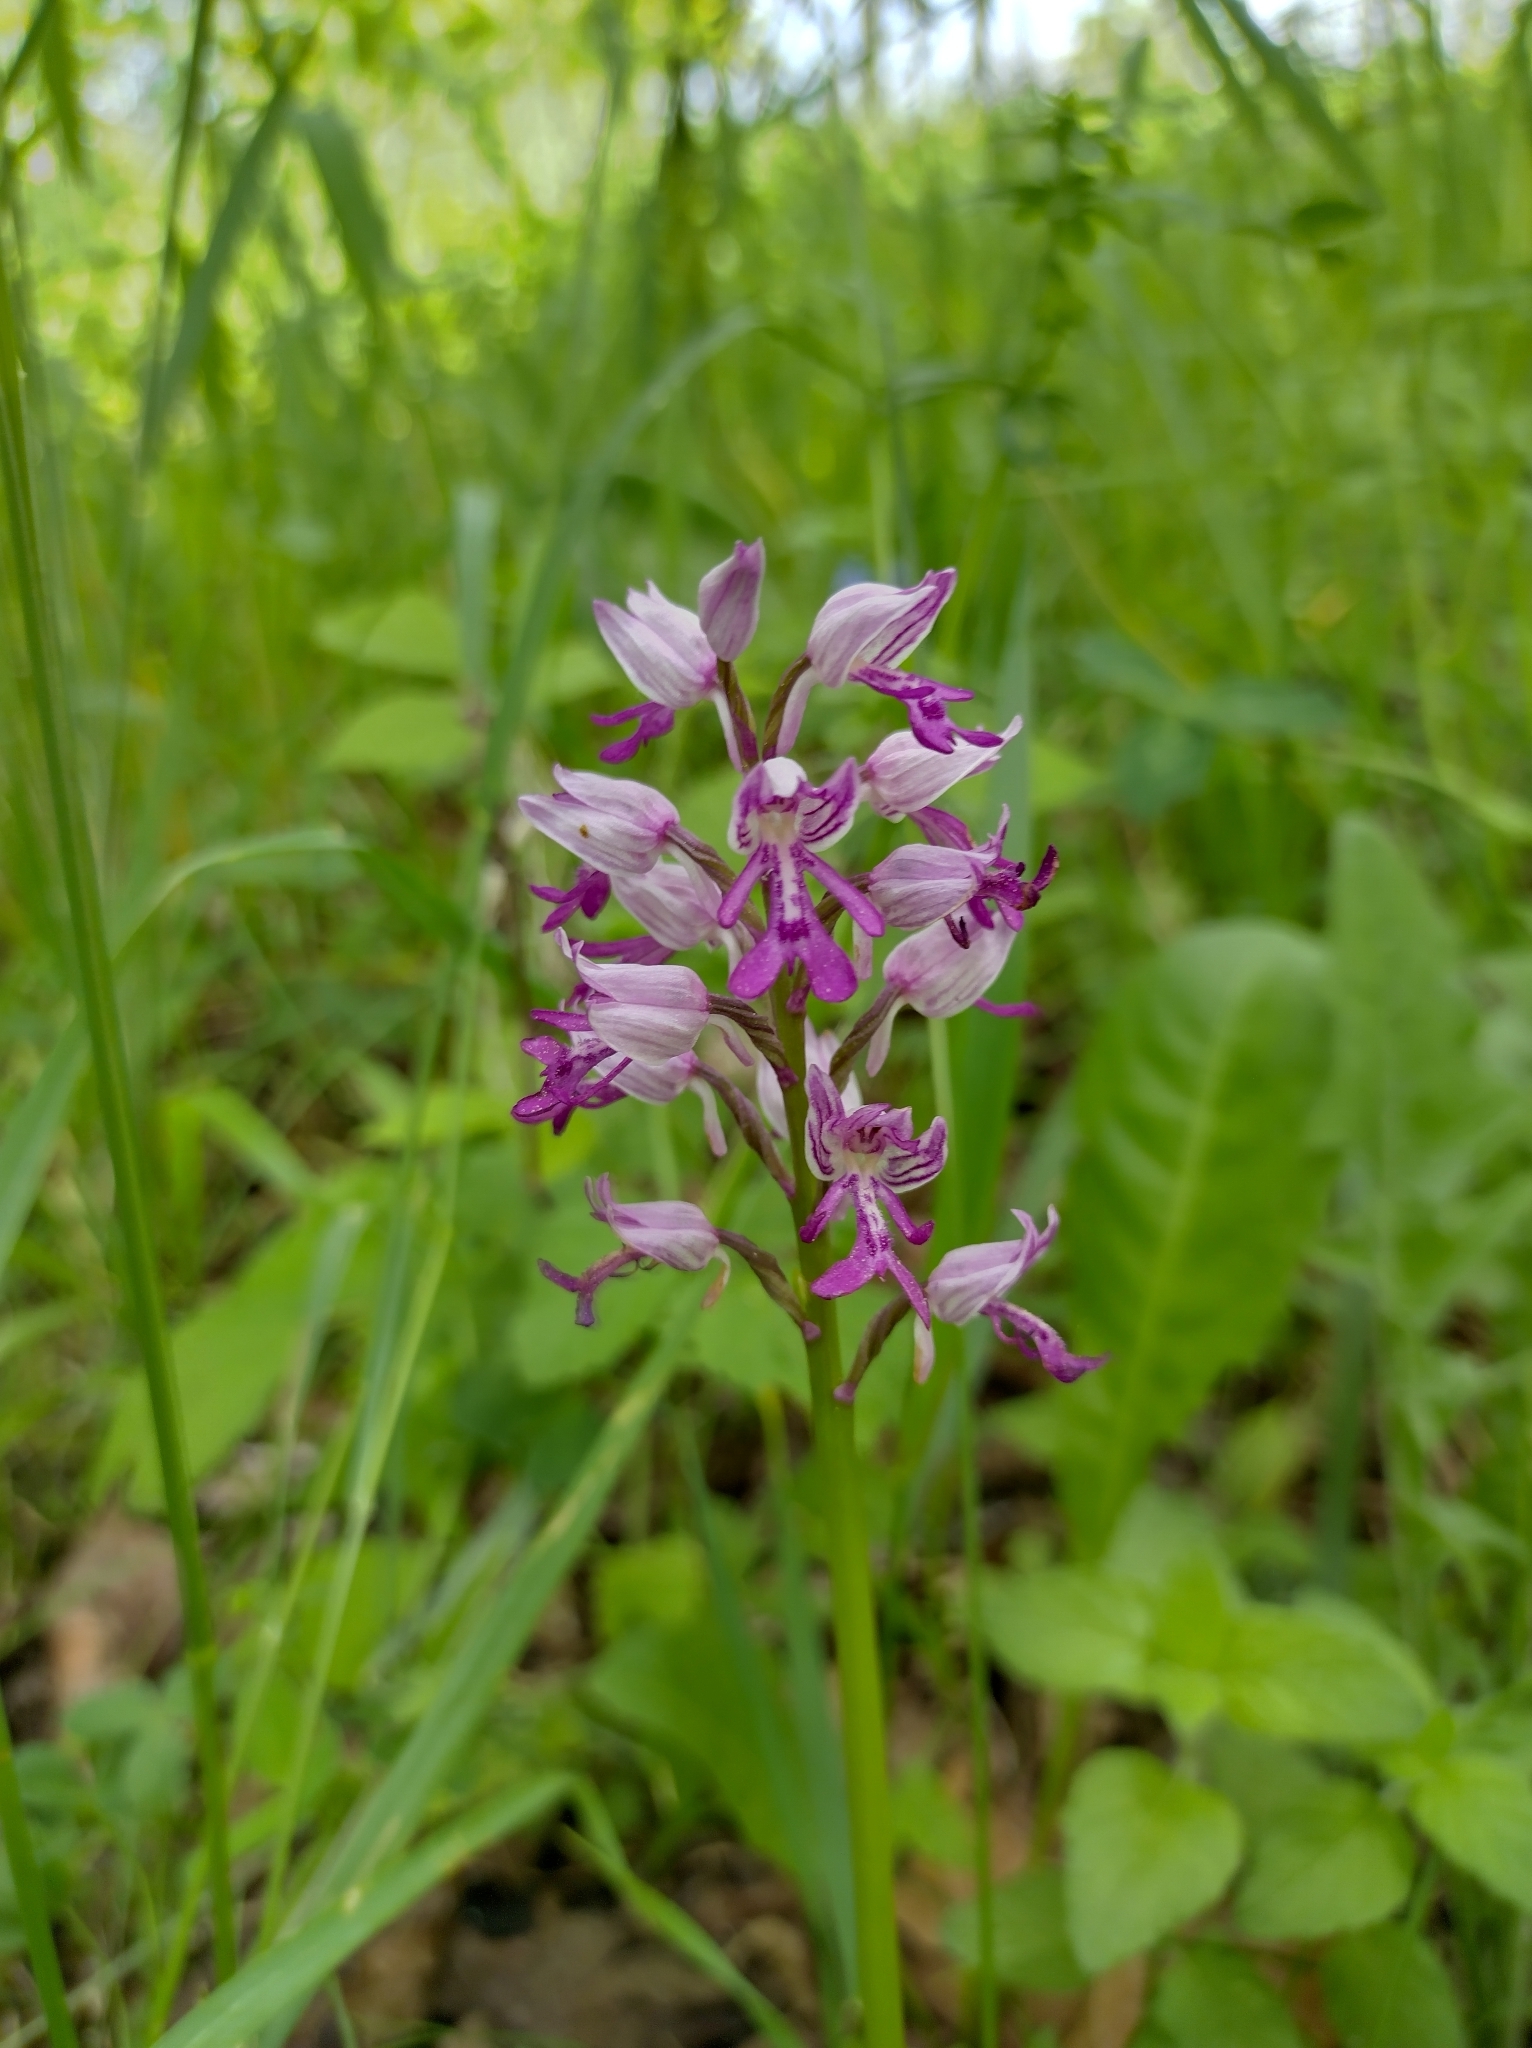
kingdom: Plantae
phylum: Tracheophyta
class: Liliopsida
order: Asparagales
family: Orchidaceae
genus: Orchis
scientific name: Orchis militaris
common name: Military orchid
